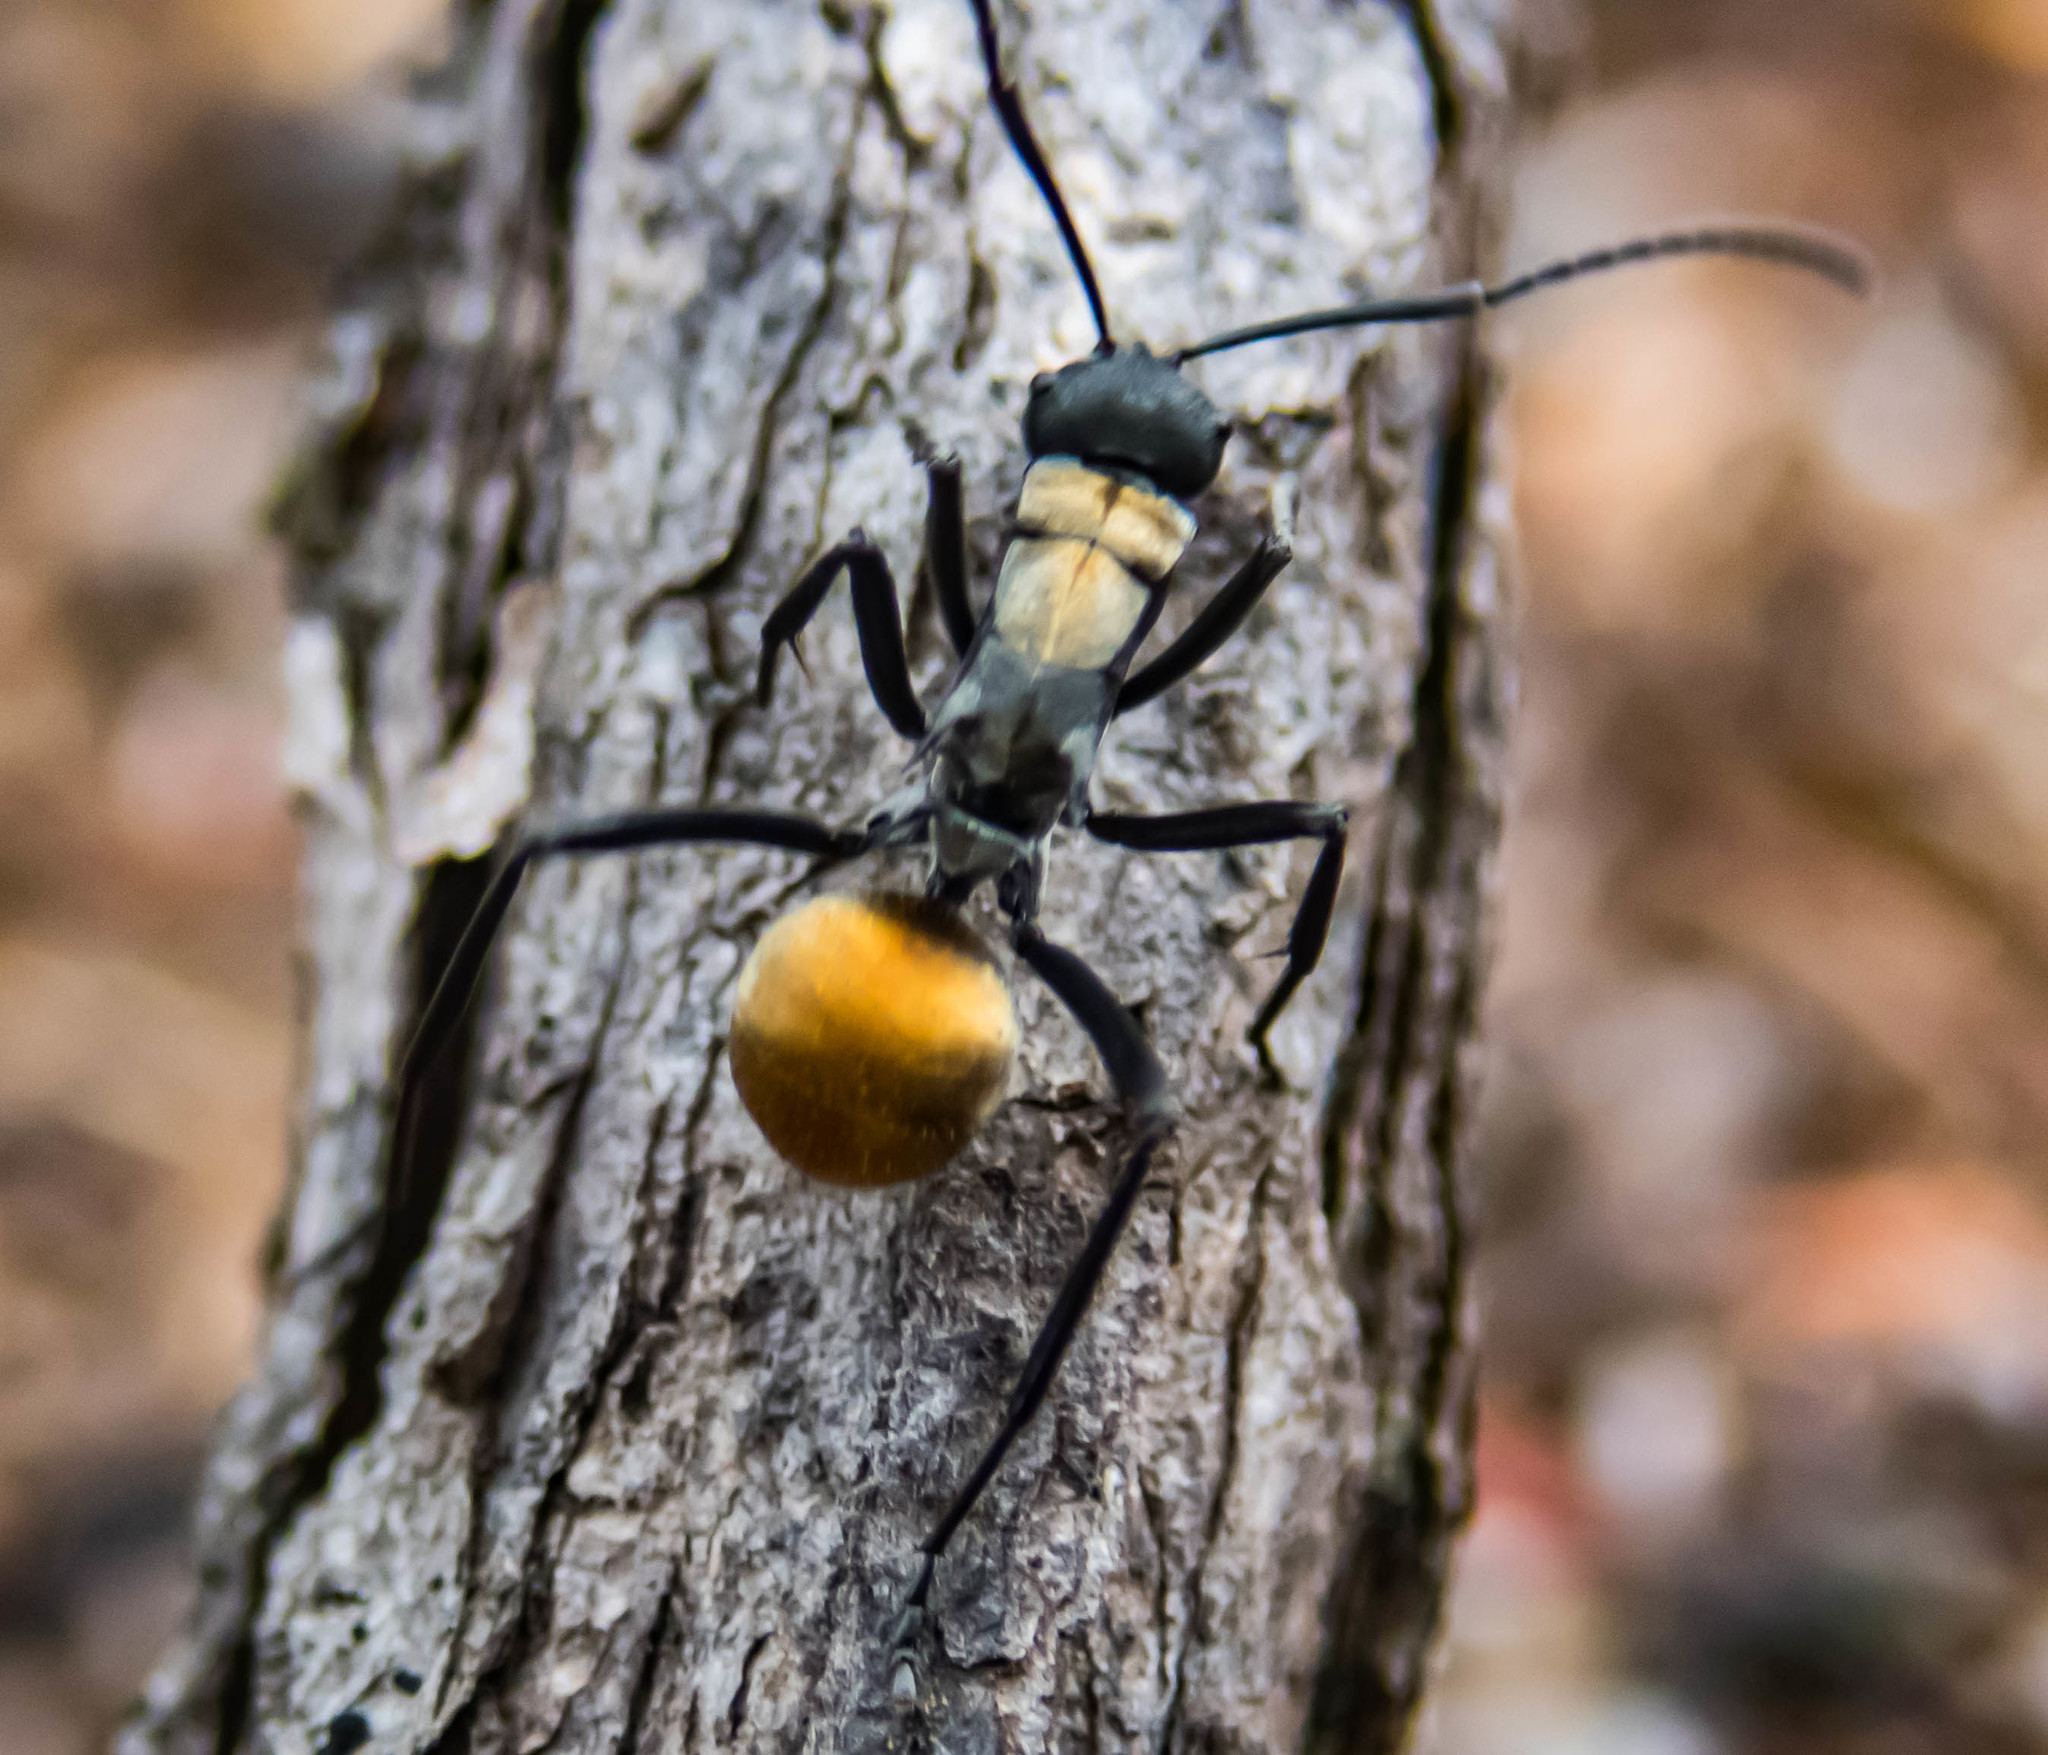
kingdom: Animalia
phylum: Arthropoda
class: Insecta
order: Hymenoptera
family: Formicidae
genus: Polyrhachis
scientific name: Polyrhachis ammon
